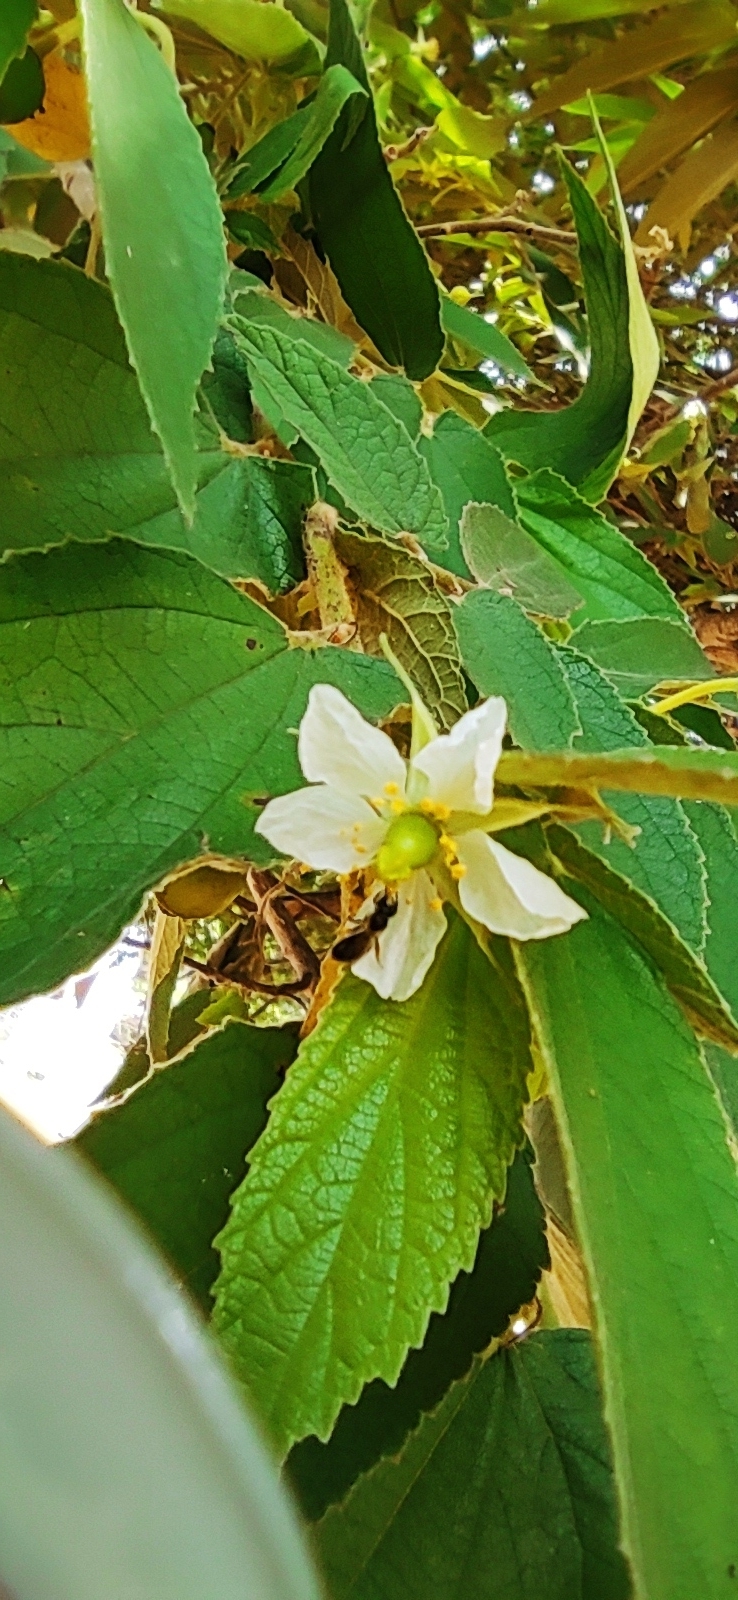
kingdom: Plantae
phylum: Tracheophyta
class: Magnoliopsida
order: Malvales
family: Muntingiaceae
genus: Muntingia
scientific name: Muntingia calabura
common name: Strawberrytree
